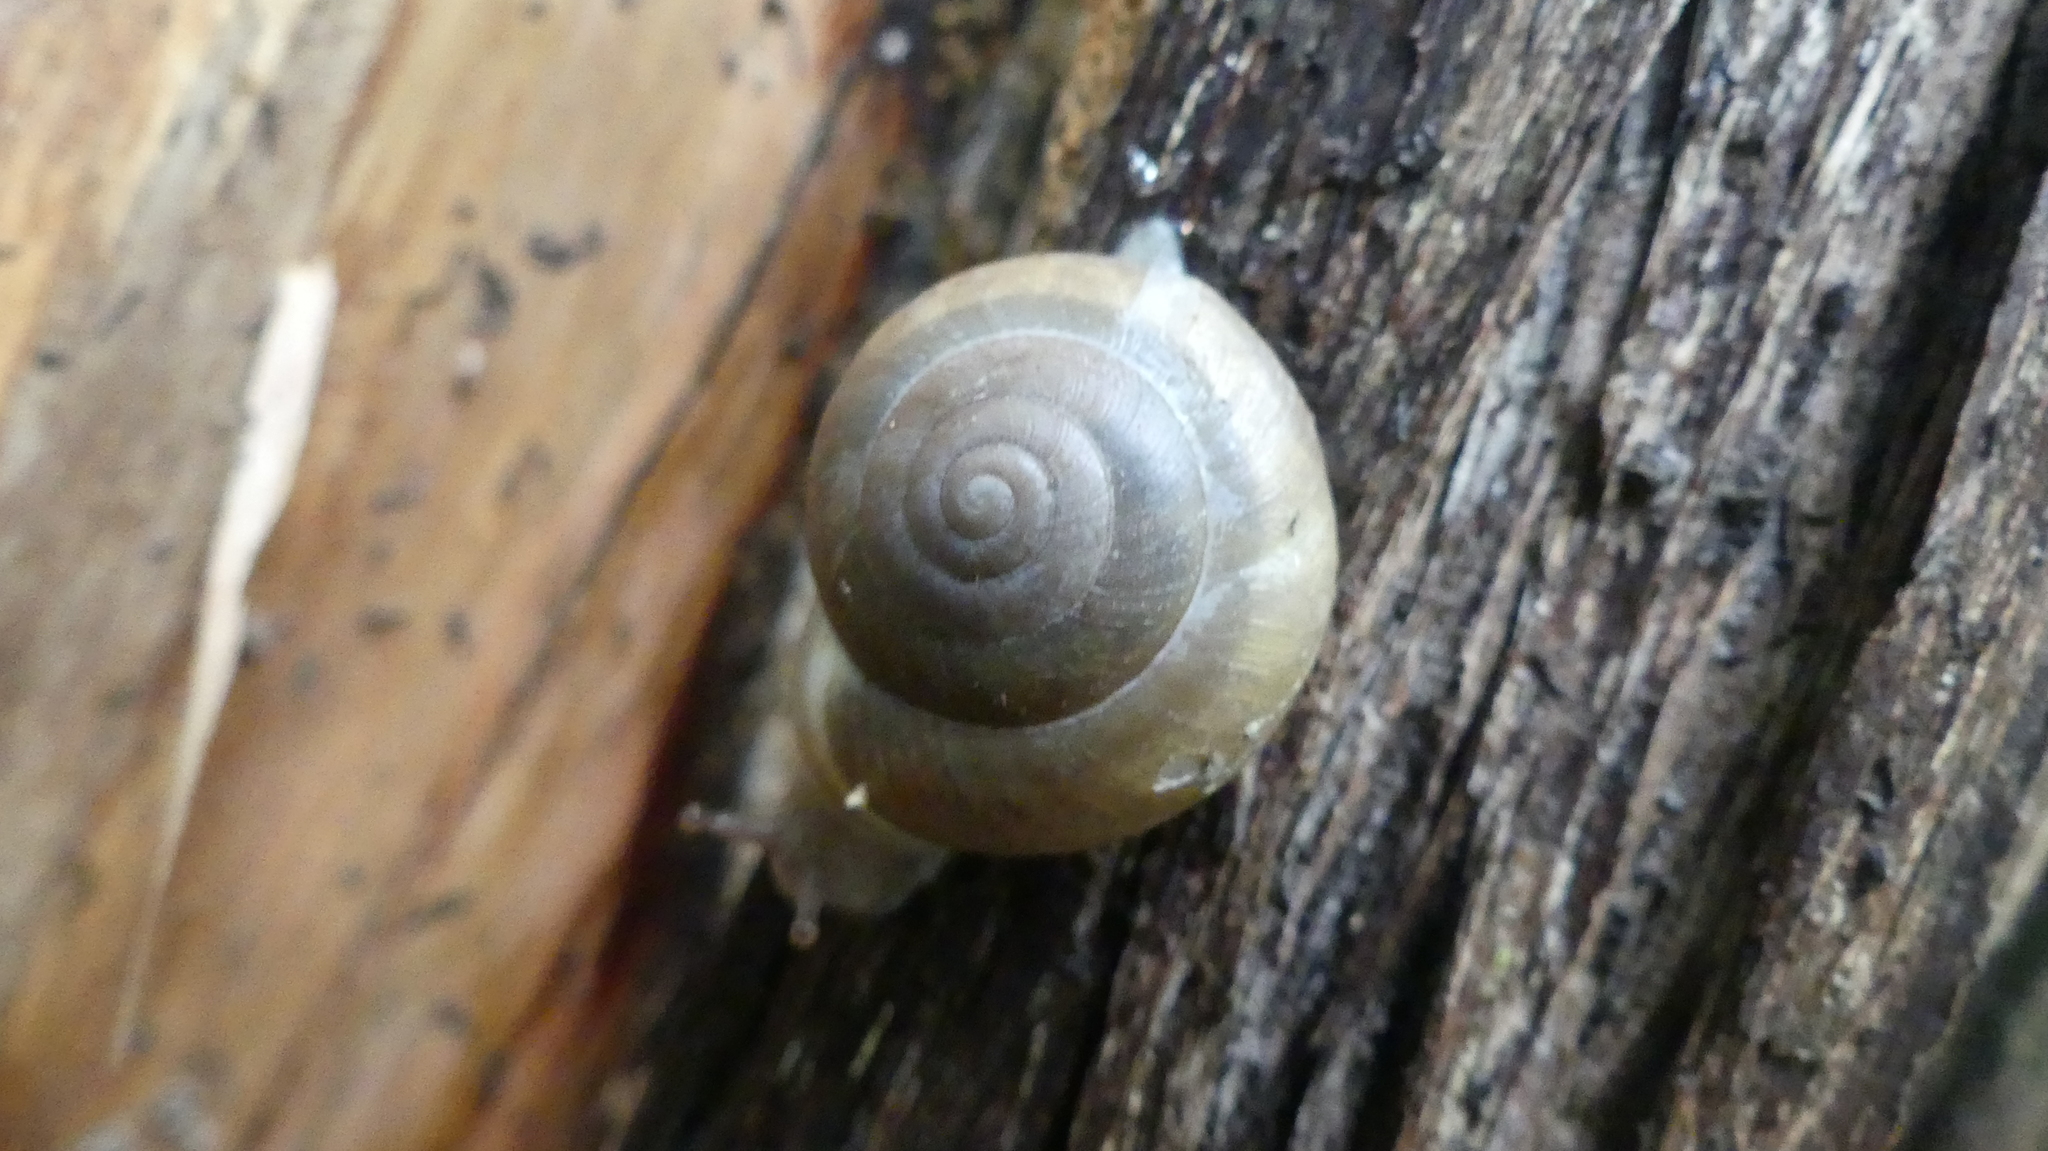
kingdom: Animalia
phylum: Mollusca
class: Gastropoda
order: Stylommatophora
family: Polygyridae
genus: Patera
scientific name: Patera roemeri
